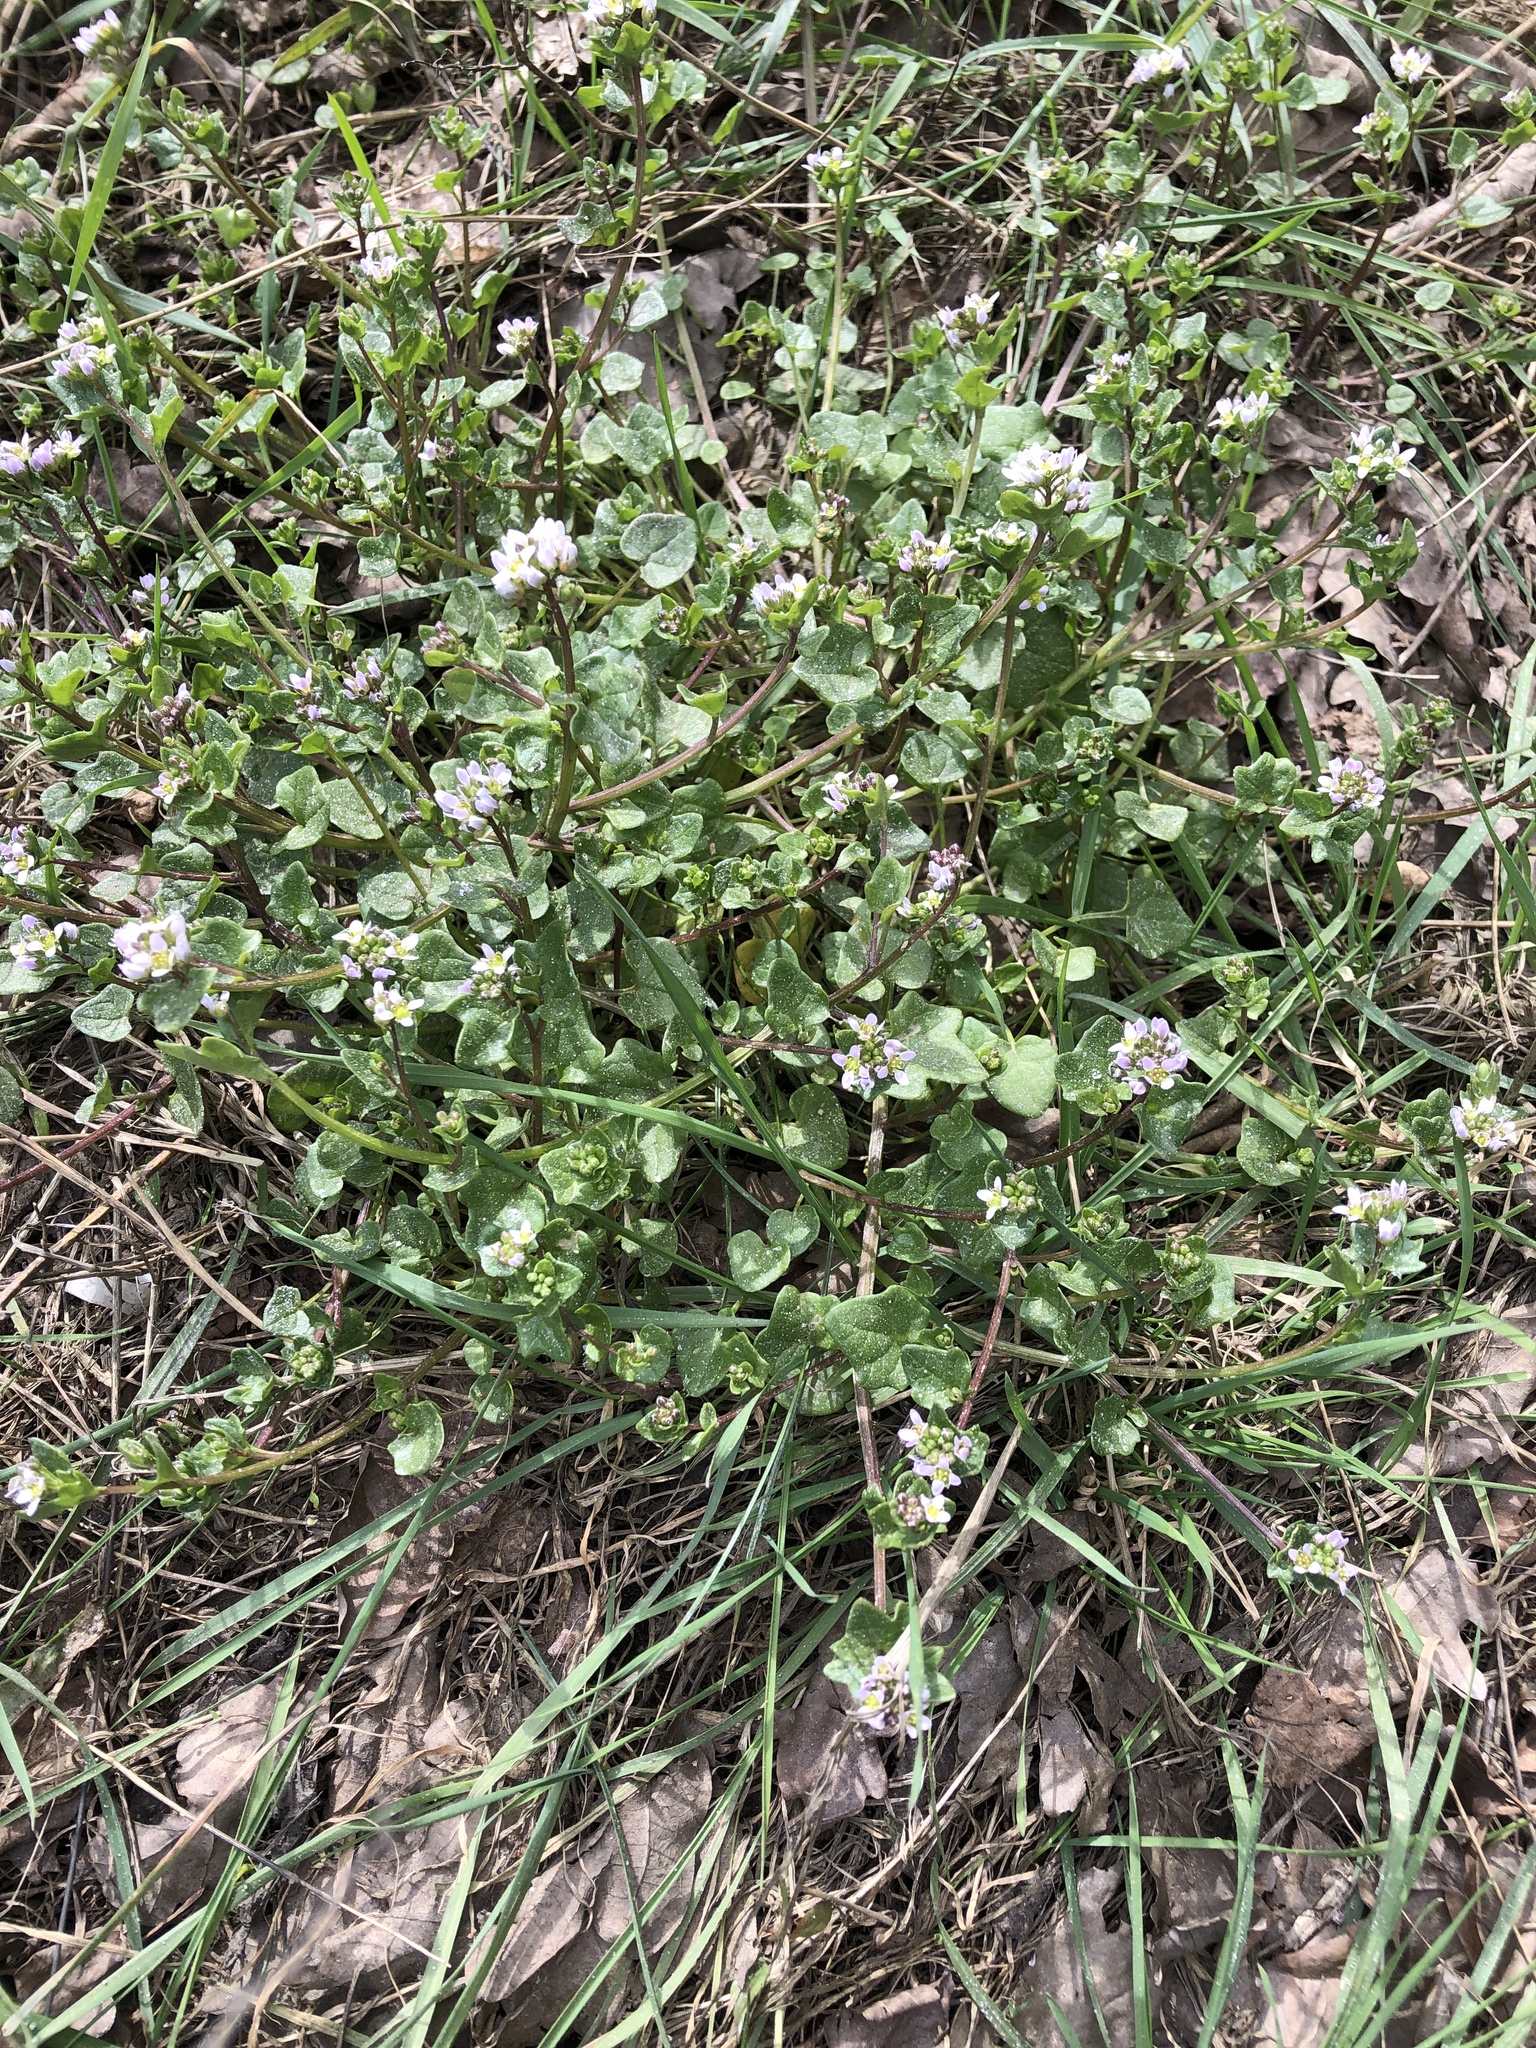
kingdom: Plantae
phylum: Tracheophyta
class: Magnoliopsida
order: Brassicales
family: Brassicaceae
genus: Cochlearia
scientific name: Cochlearia danica
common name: Early scurvygrass
